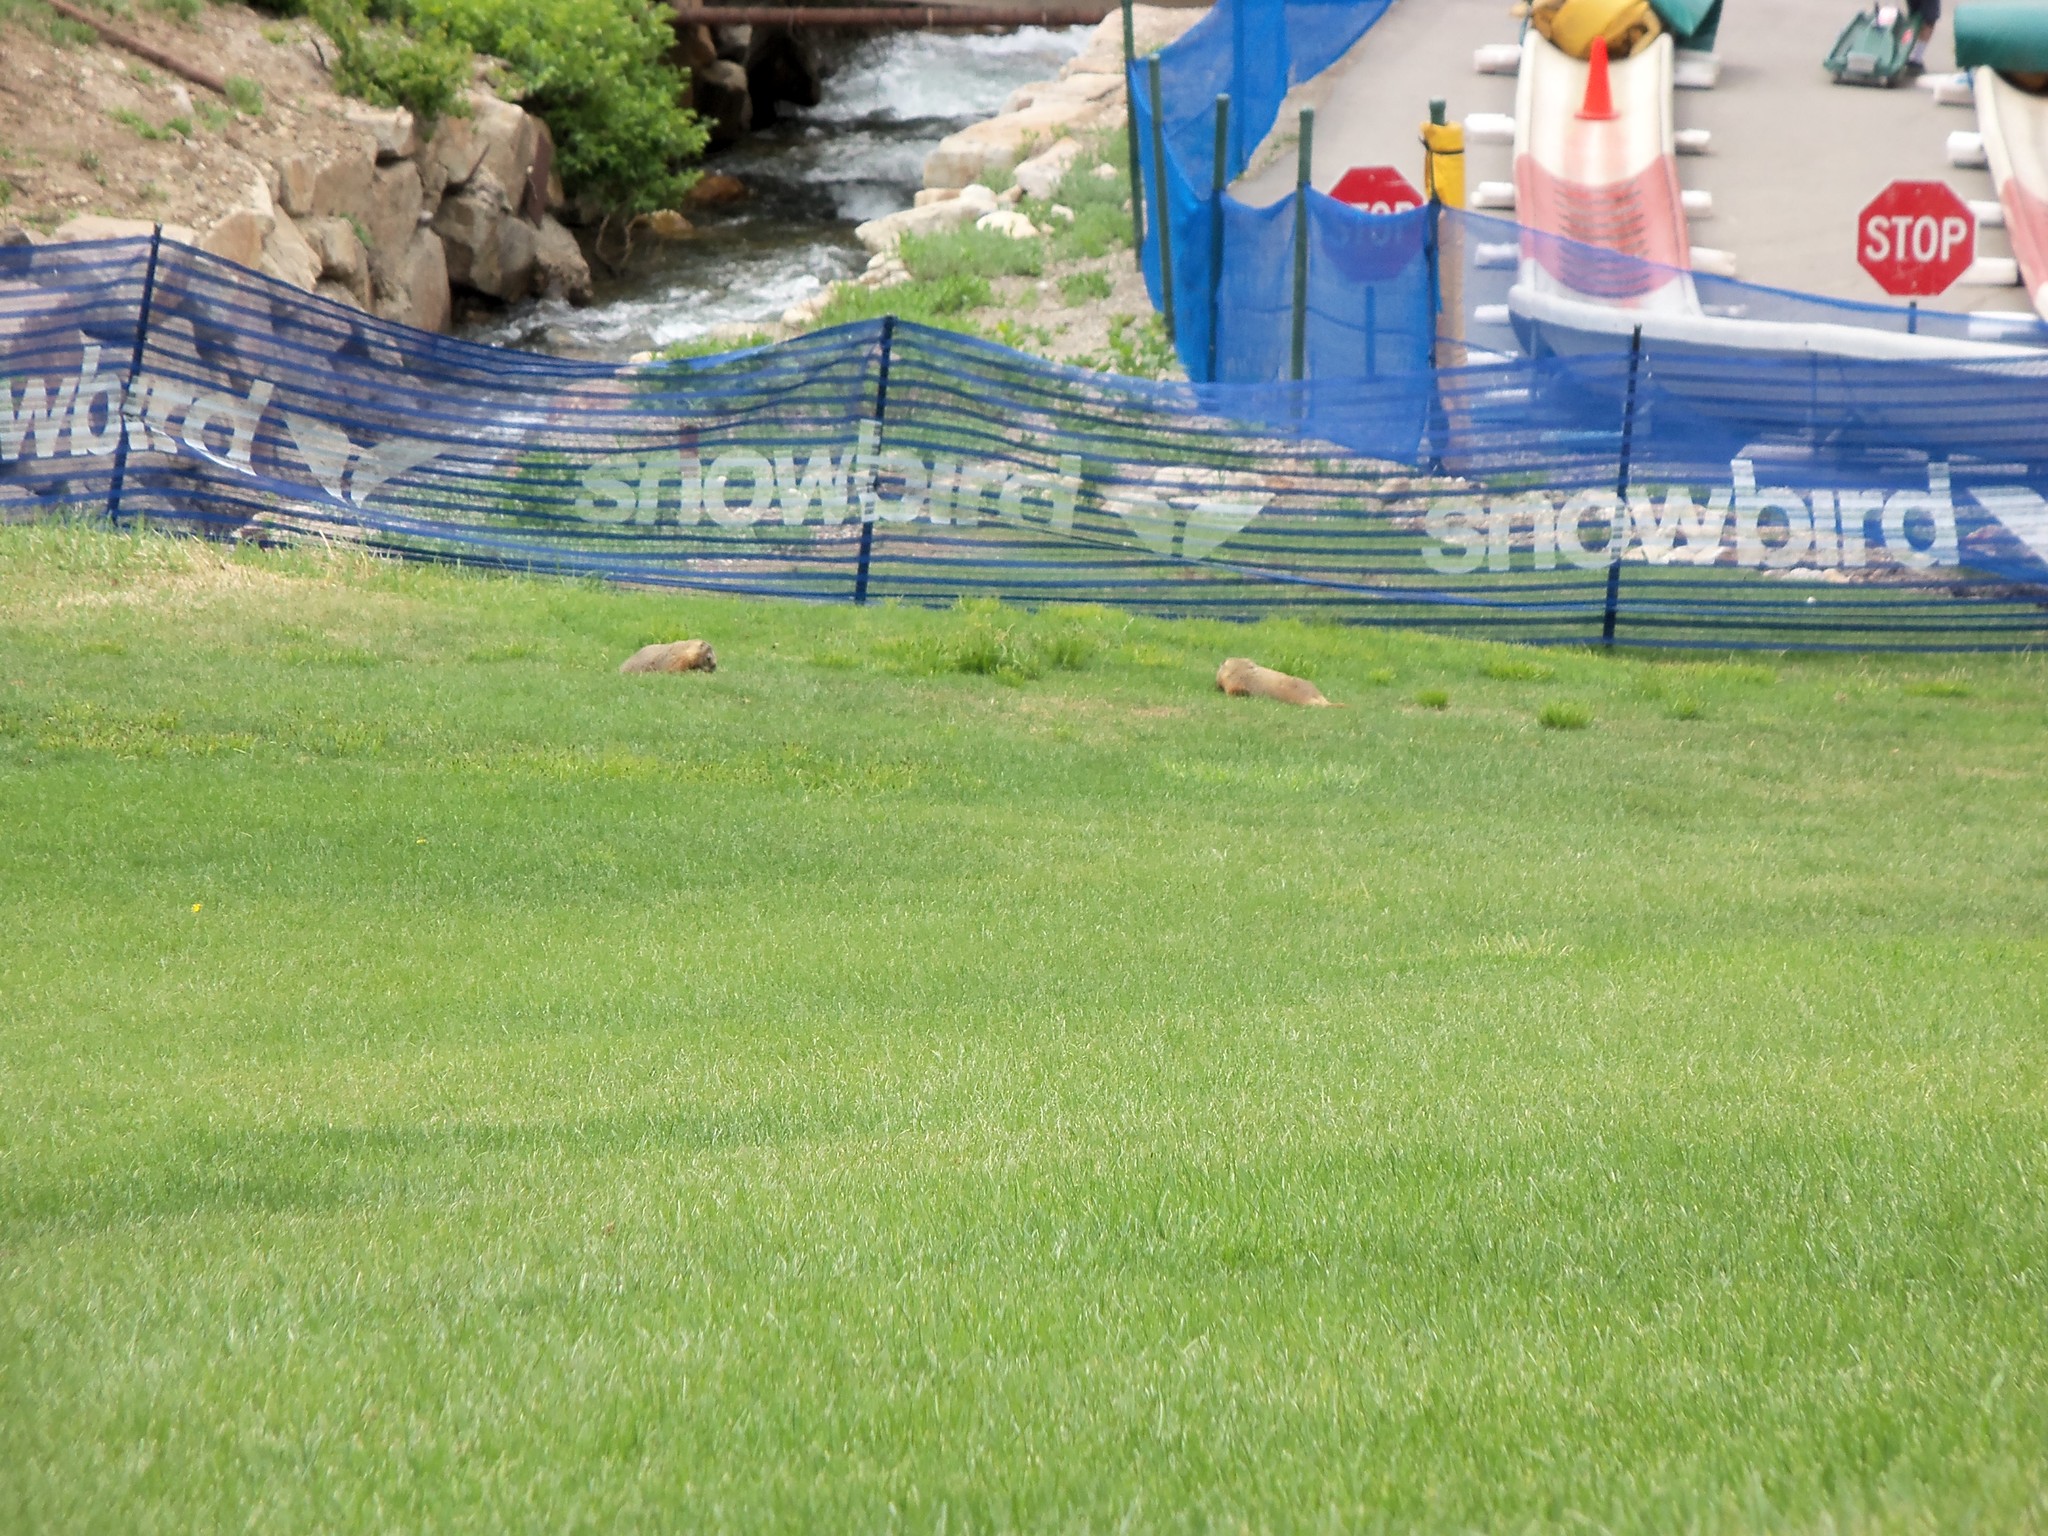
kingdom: Animalia
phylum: Chordata
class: Mammalia
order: Rodentia
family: Sciuridae
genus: Marmota
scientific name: Marmota flaviventris
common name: Yellow-bellied marmot
